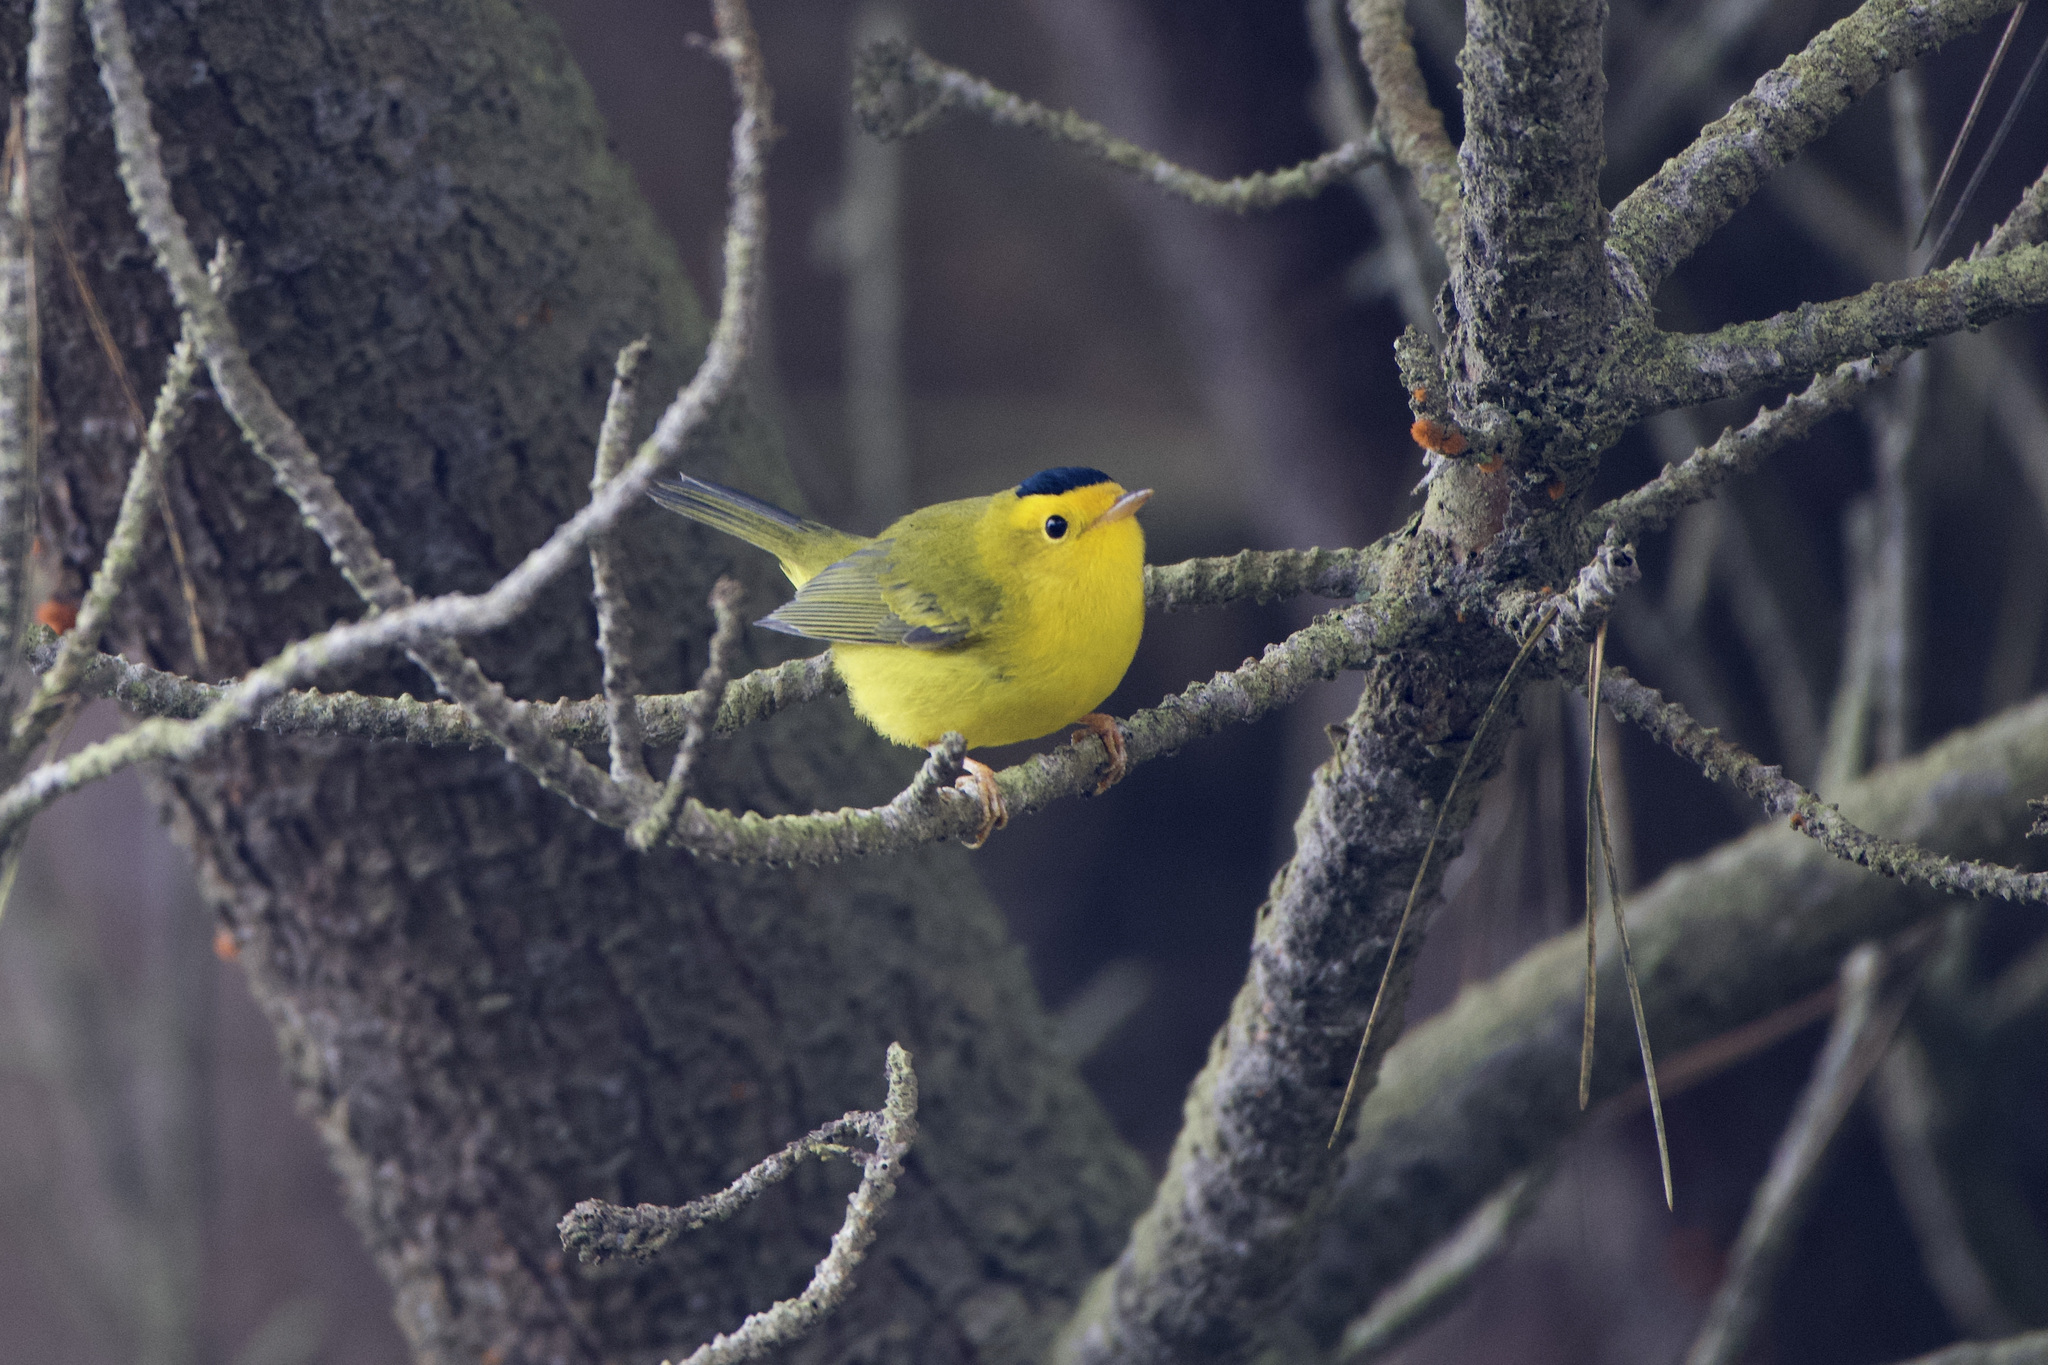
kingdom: Animalia
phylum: Chordata
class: Aves
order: Passeriformes
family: Parulidae
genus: Cardellina
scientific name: Cardellina pusilla
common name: Wilson's warbler
